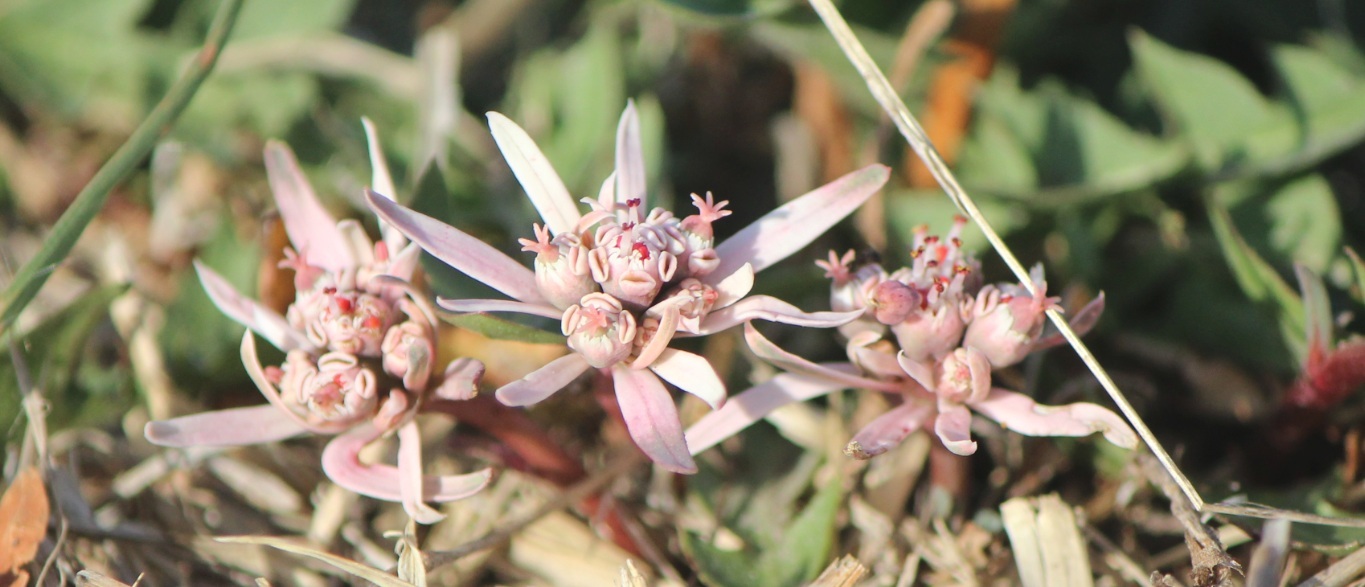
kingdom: Plantae
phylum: Tracheophyta
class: Magnoliopsida
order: Malpighiales
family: Euphorbiaceae
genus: Euphorbia
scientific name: Euphorbia radians
